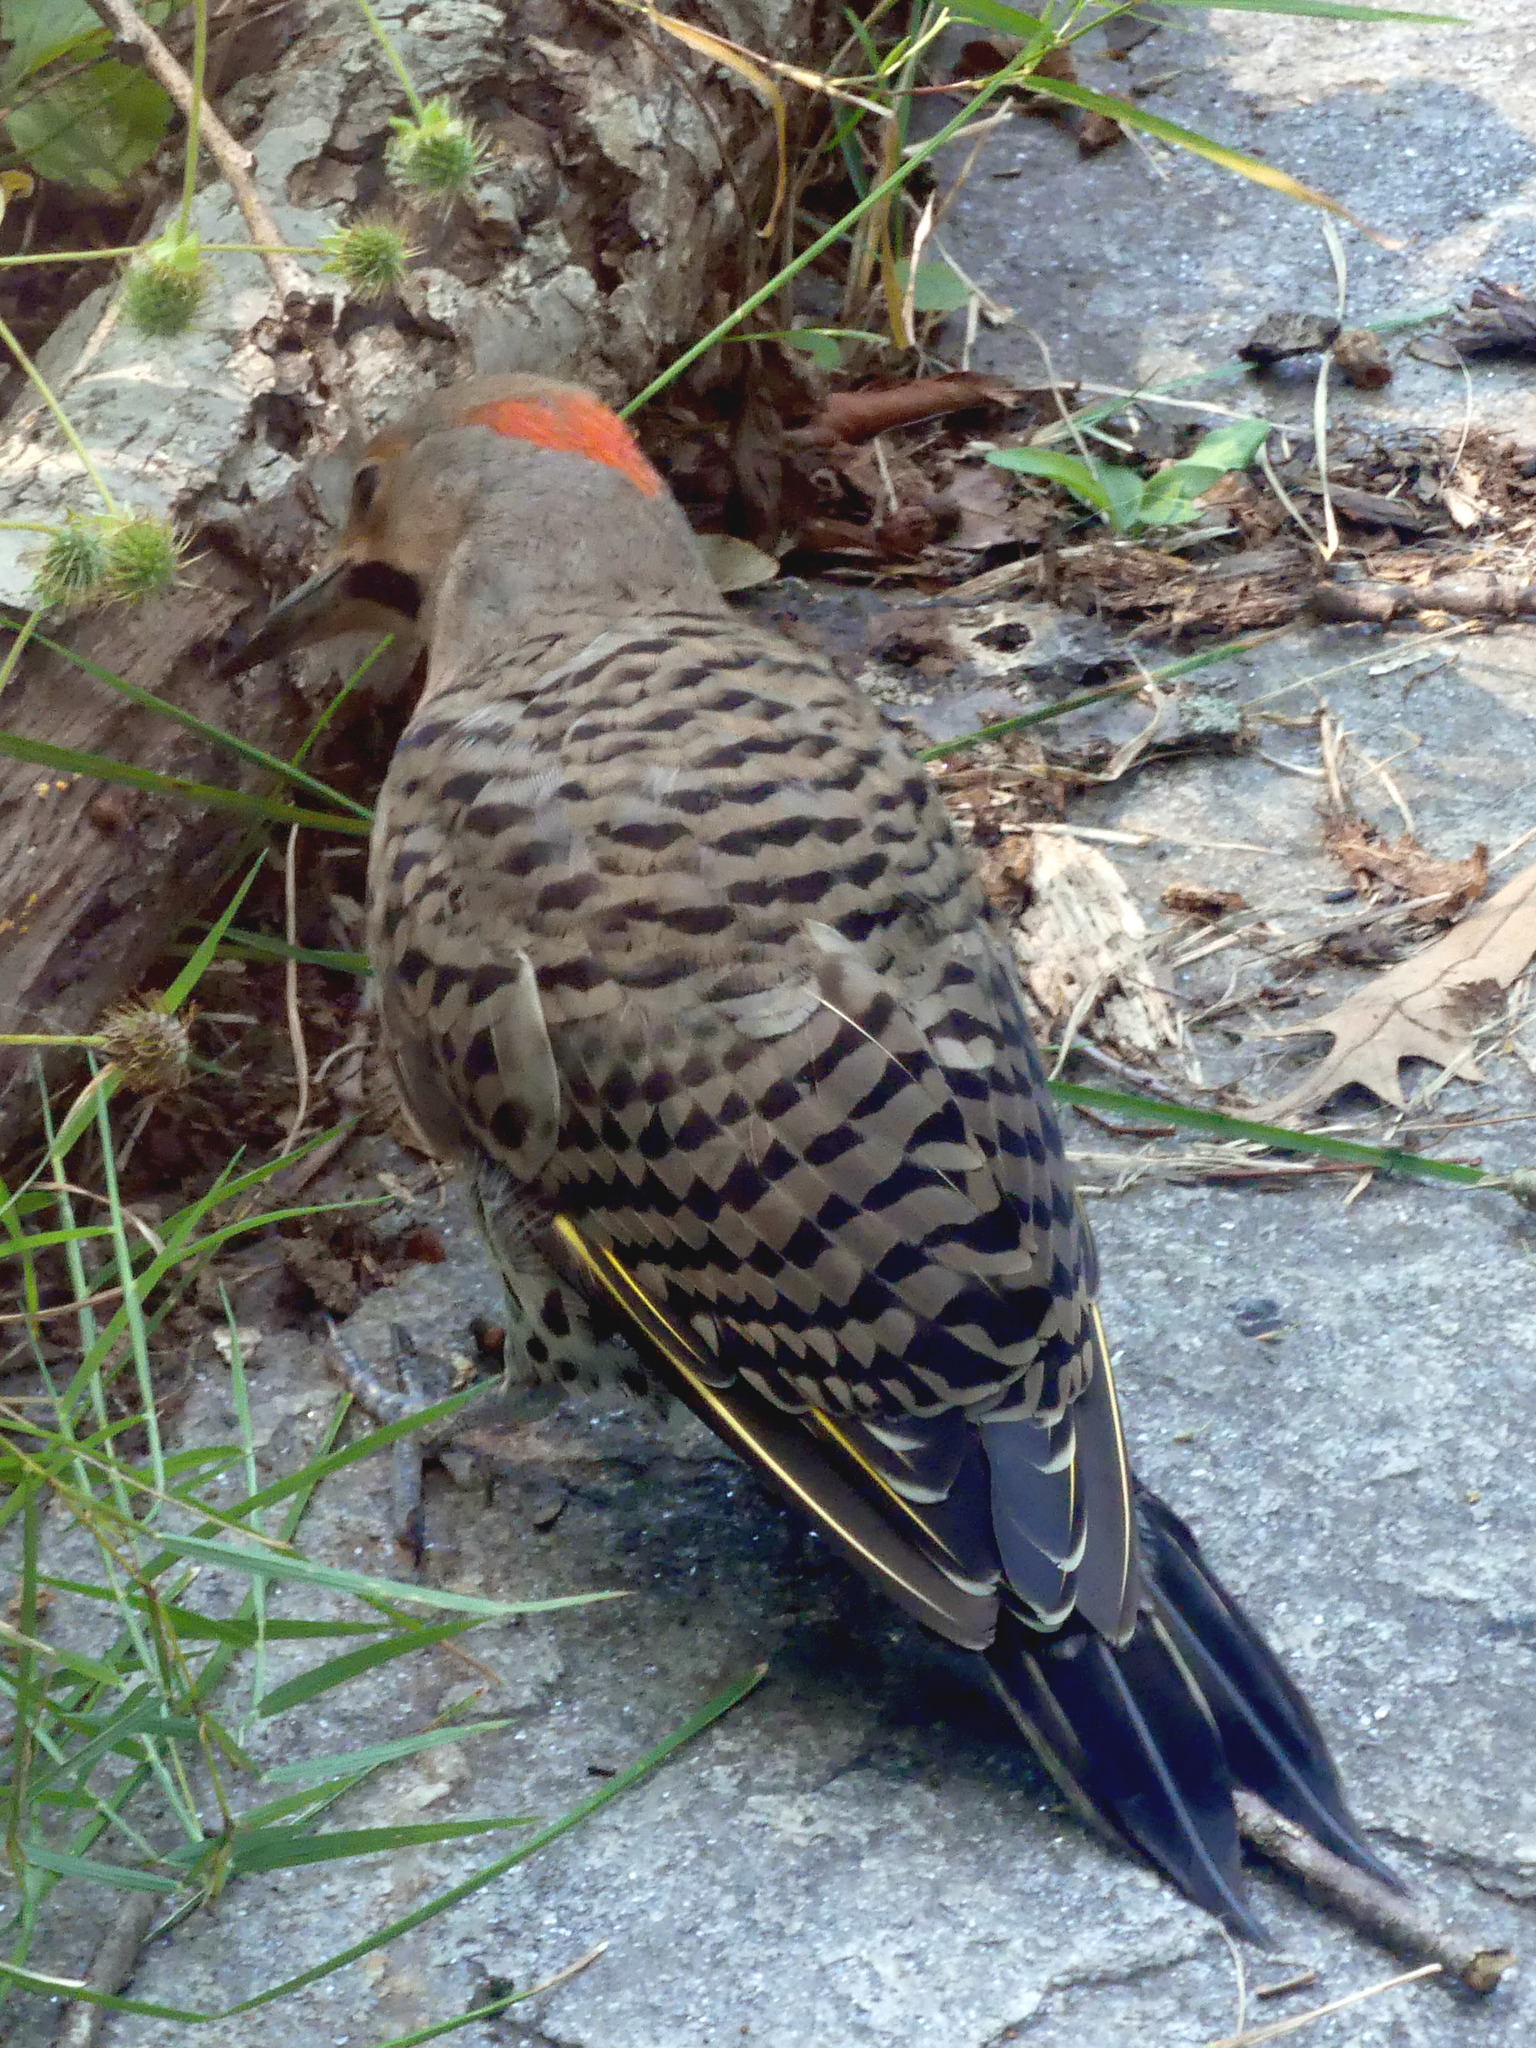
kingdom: Animalia
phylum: Chordata
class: Aves
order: Piciformes
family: Picidae
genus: Colaptes
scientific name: Colaptes auratus
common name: Northern flicker
